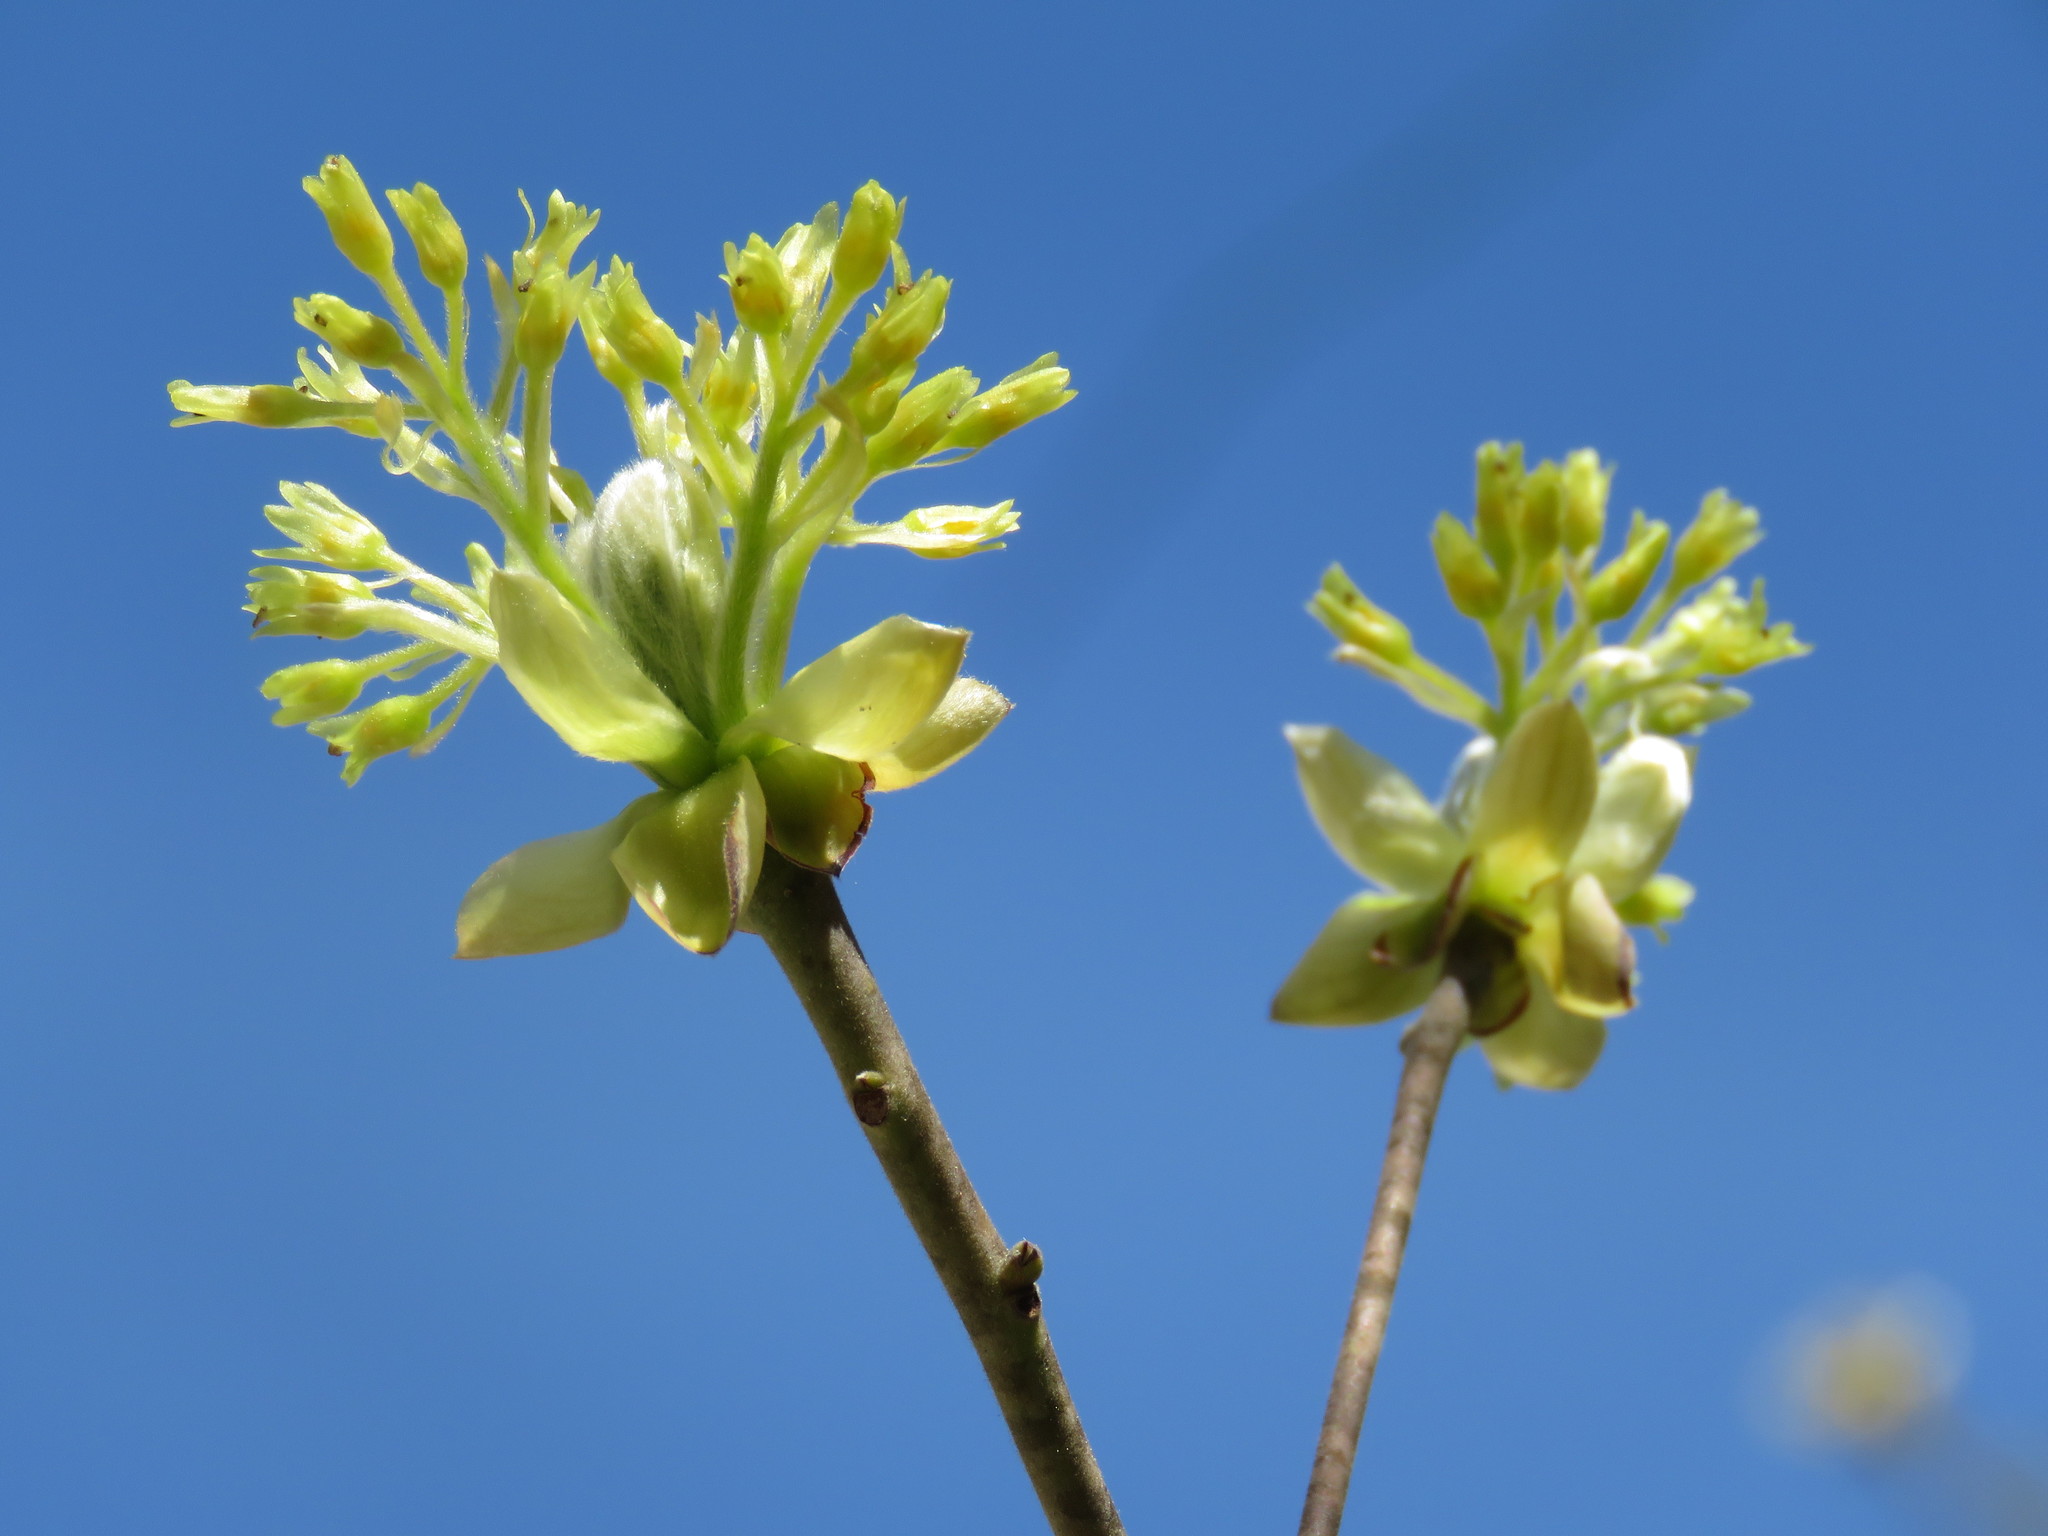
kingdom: Plantae
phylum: Tracheophyta
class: Magnoliopsida
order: Laurales
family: Lauraceae
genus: Sassafras
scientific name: Sassafras albidum
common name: Sassafras
